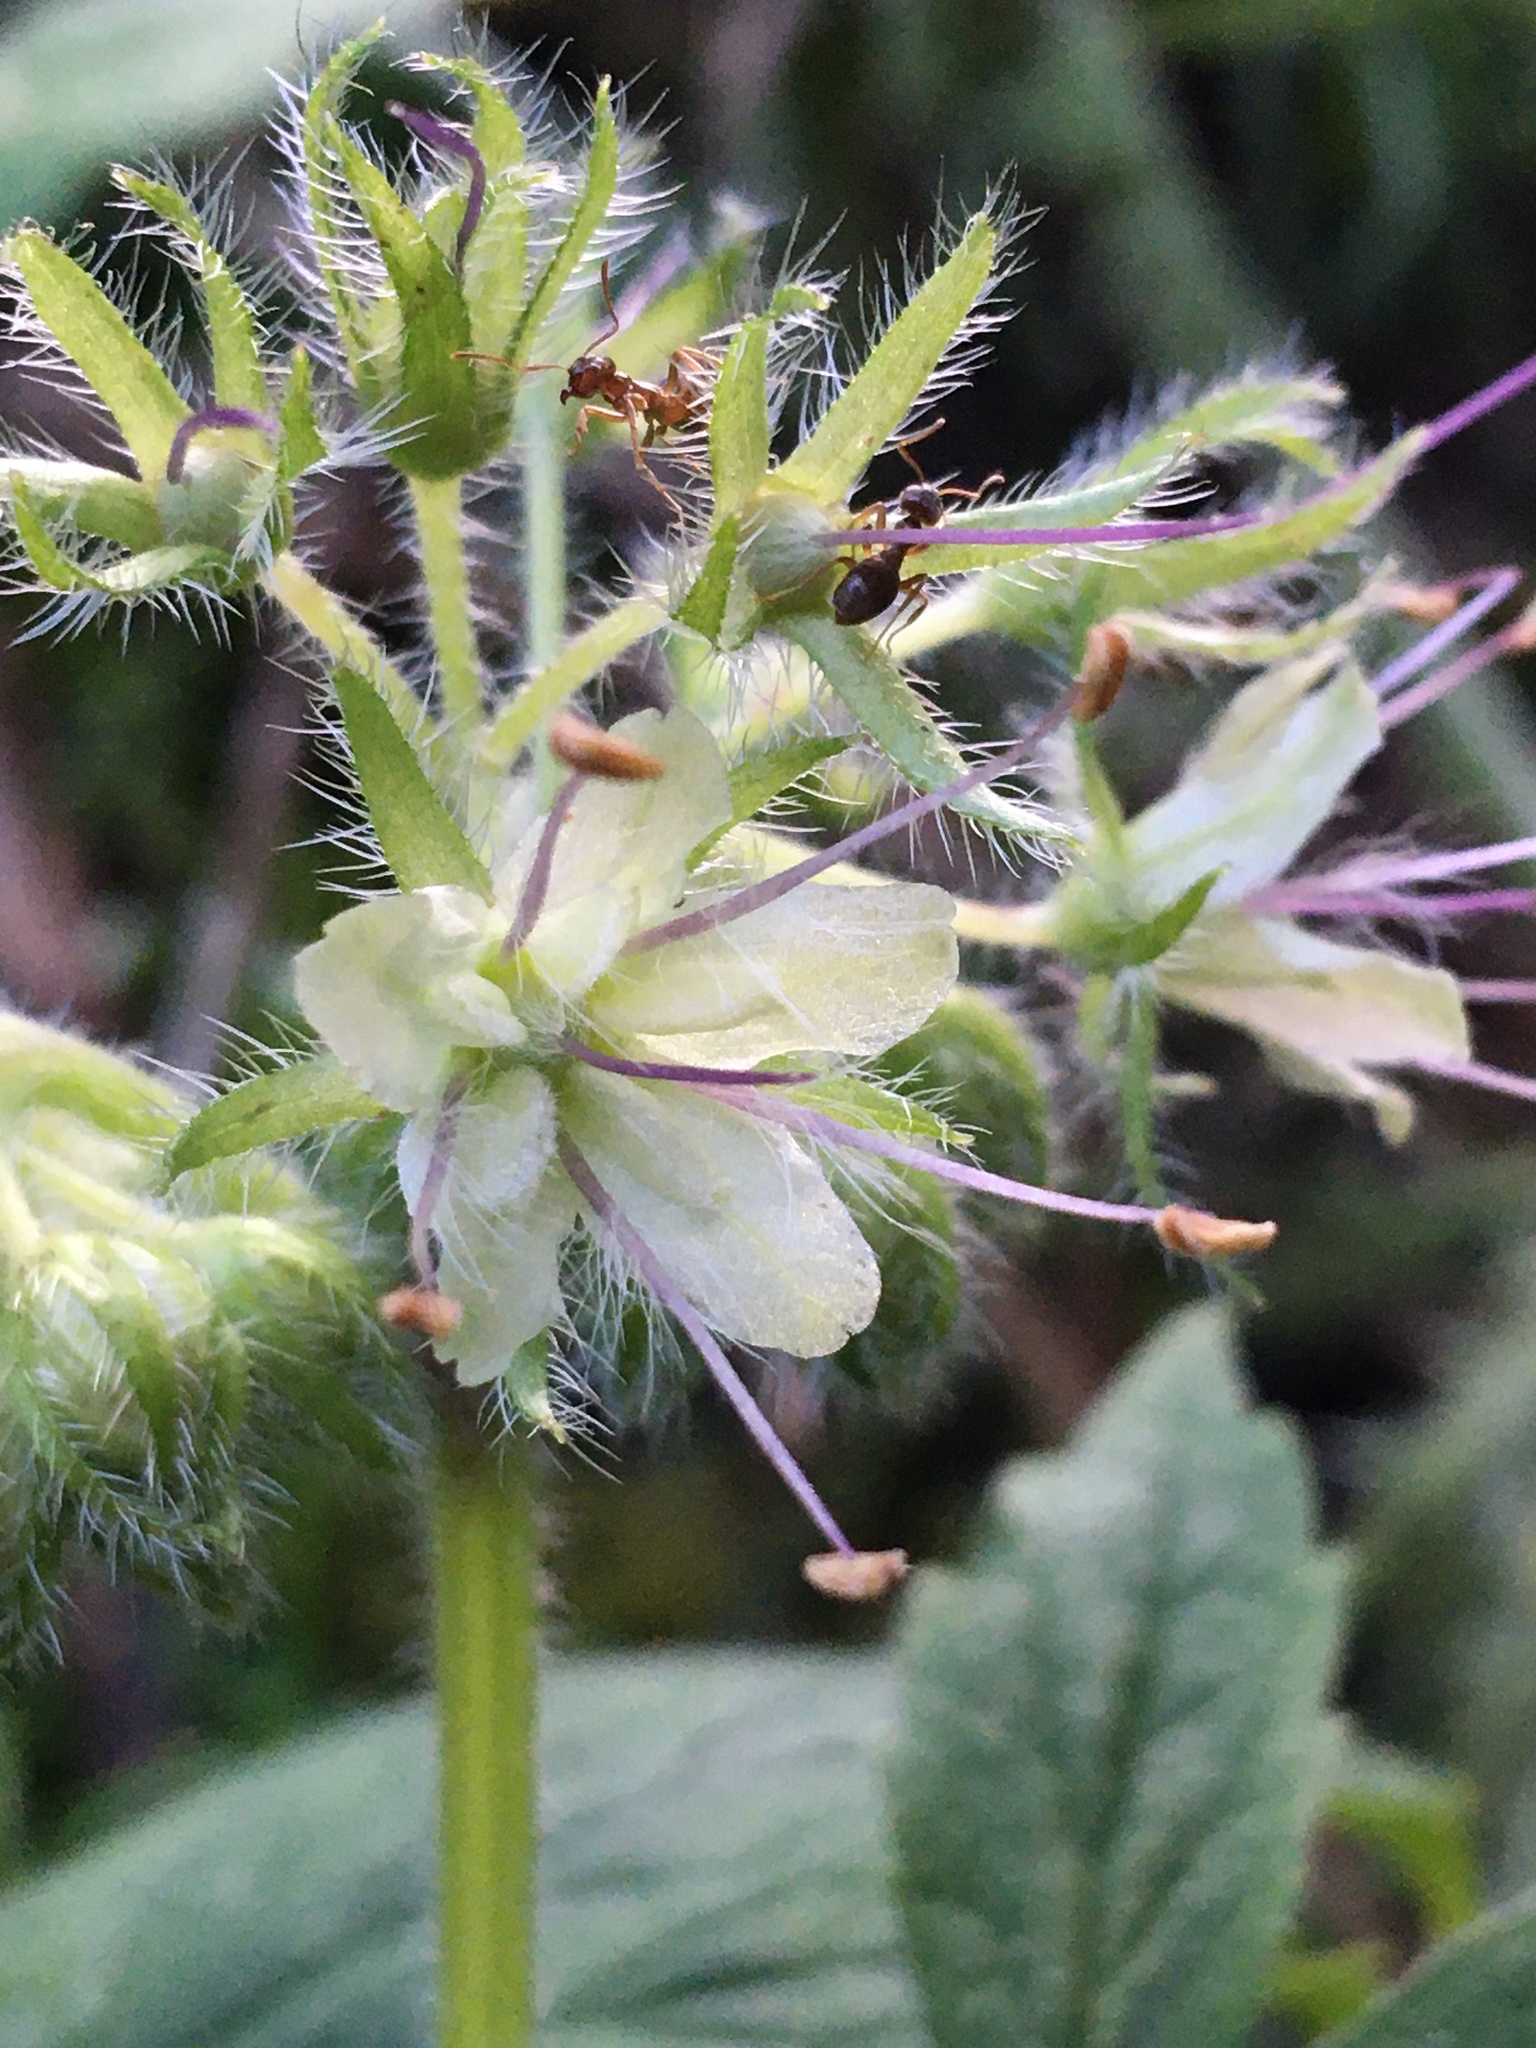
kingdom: Plantae
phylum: Tracheophyta
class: Magnoliopsida
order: Boraginales
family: Hydrophyllaceae
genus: Hydrophyllum
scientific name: Hydrophyllum tenuipes
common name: Pacific waterleaf
